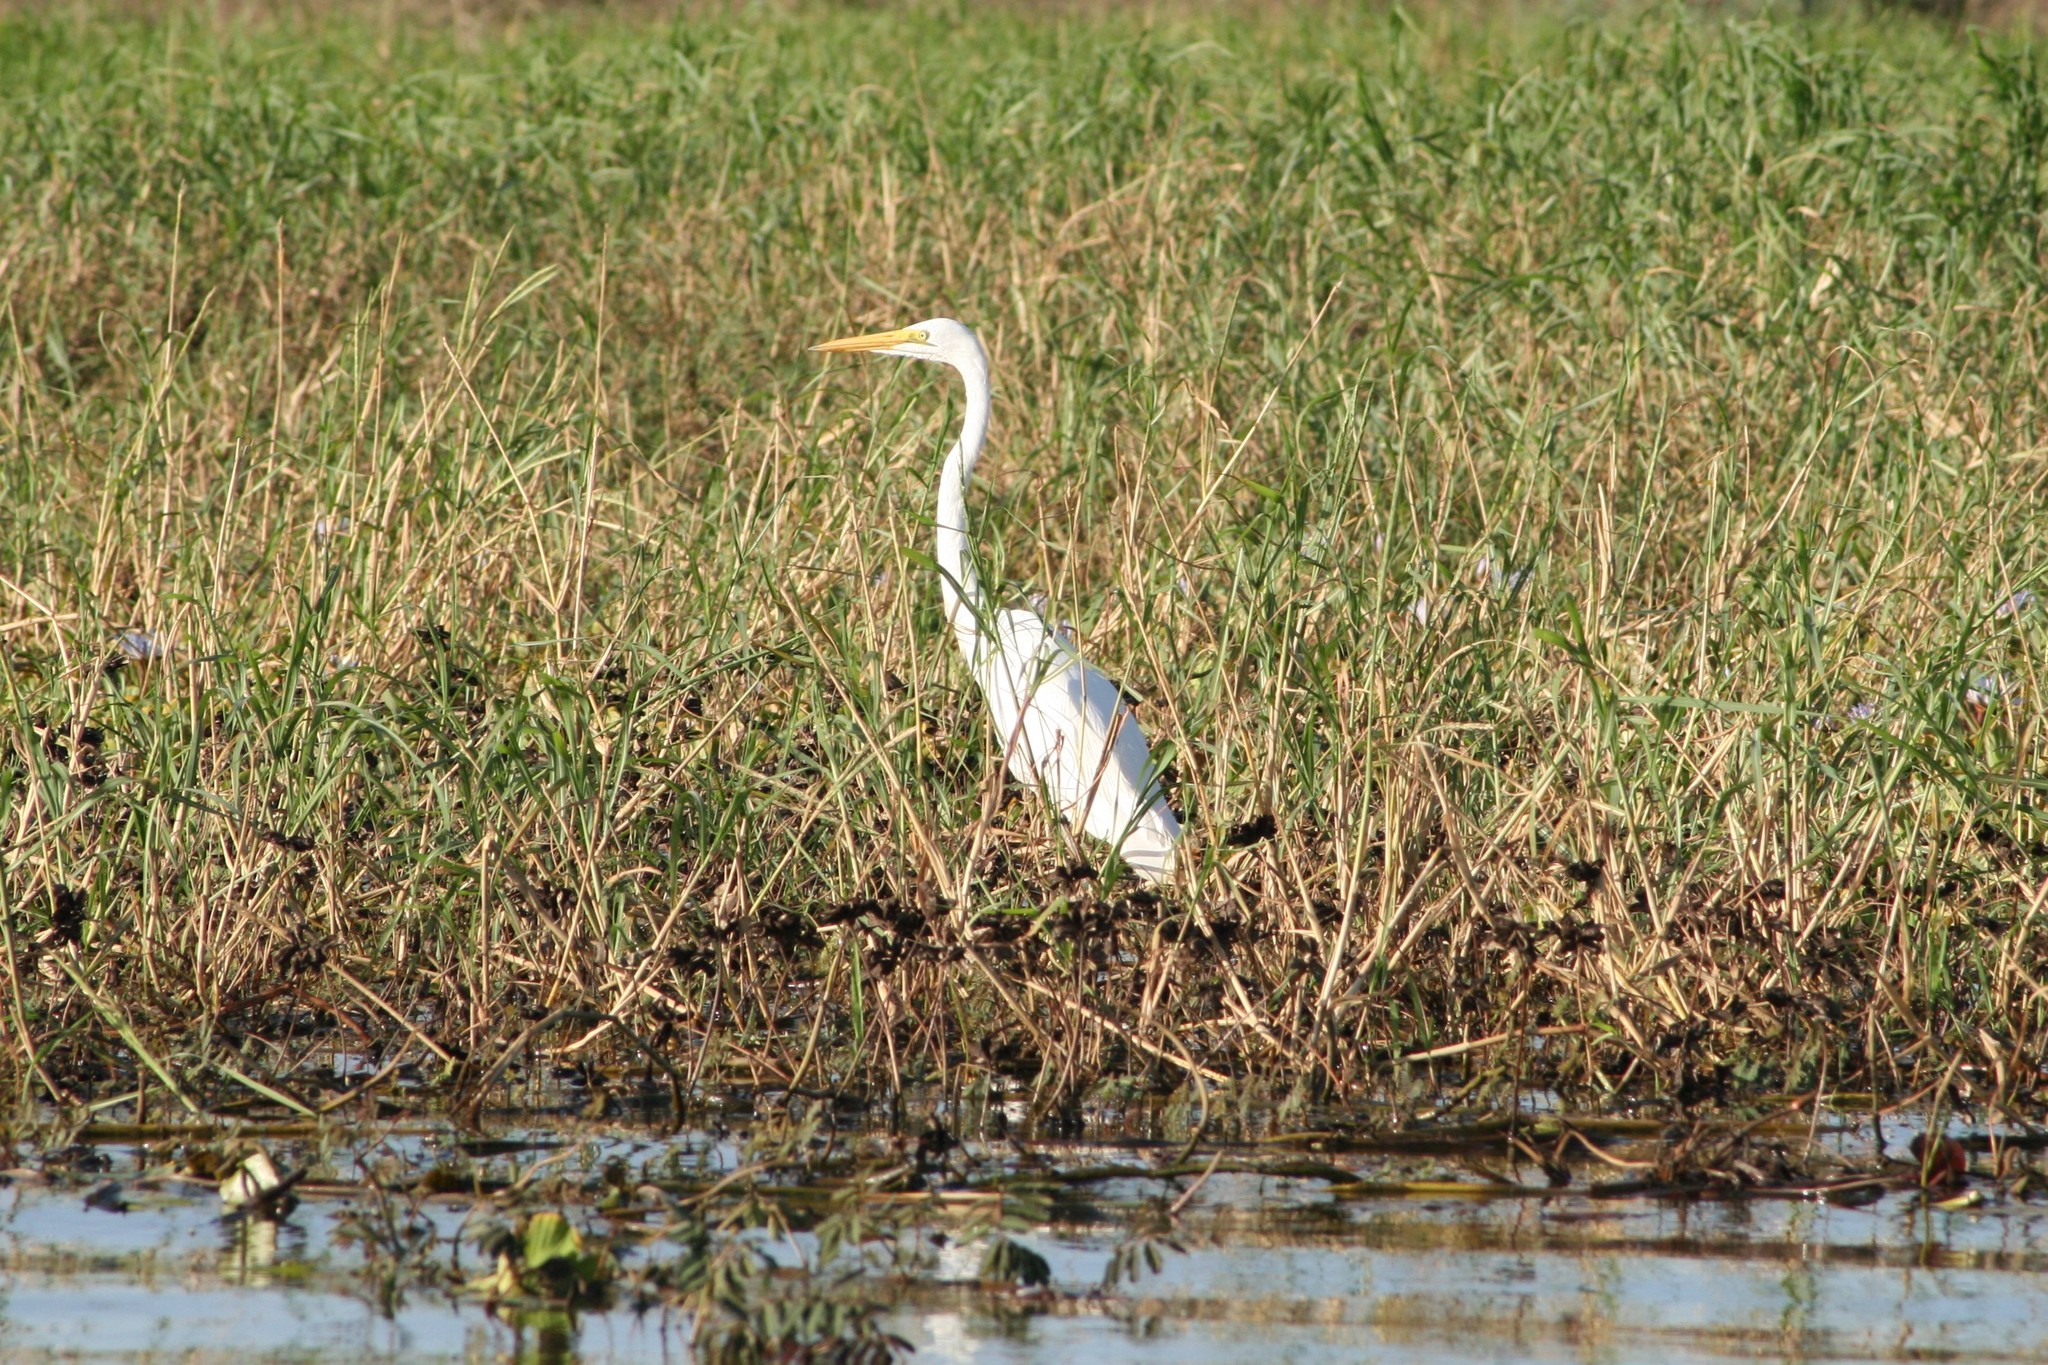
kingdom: Animalia
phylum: Chordata
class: Aves
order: Pelecaniformes
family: Ardeidae
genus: Ardea
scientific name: Ardea alba
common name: Great egret
